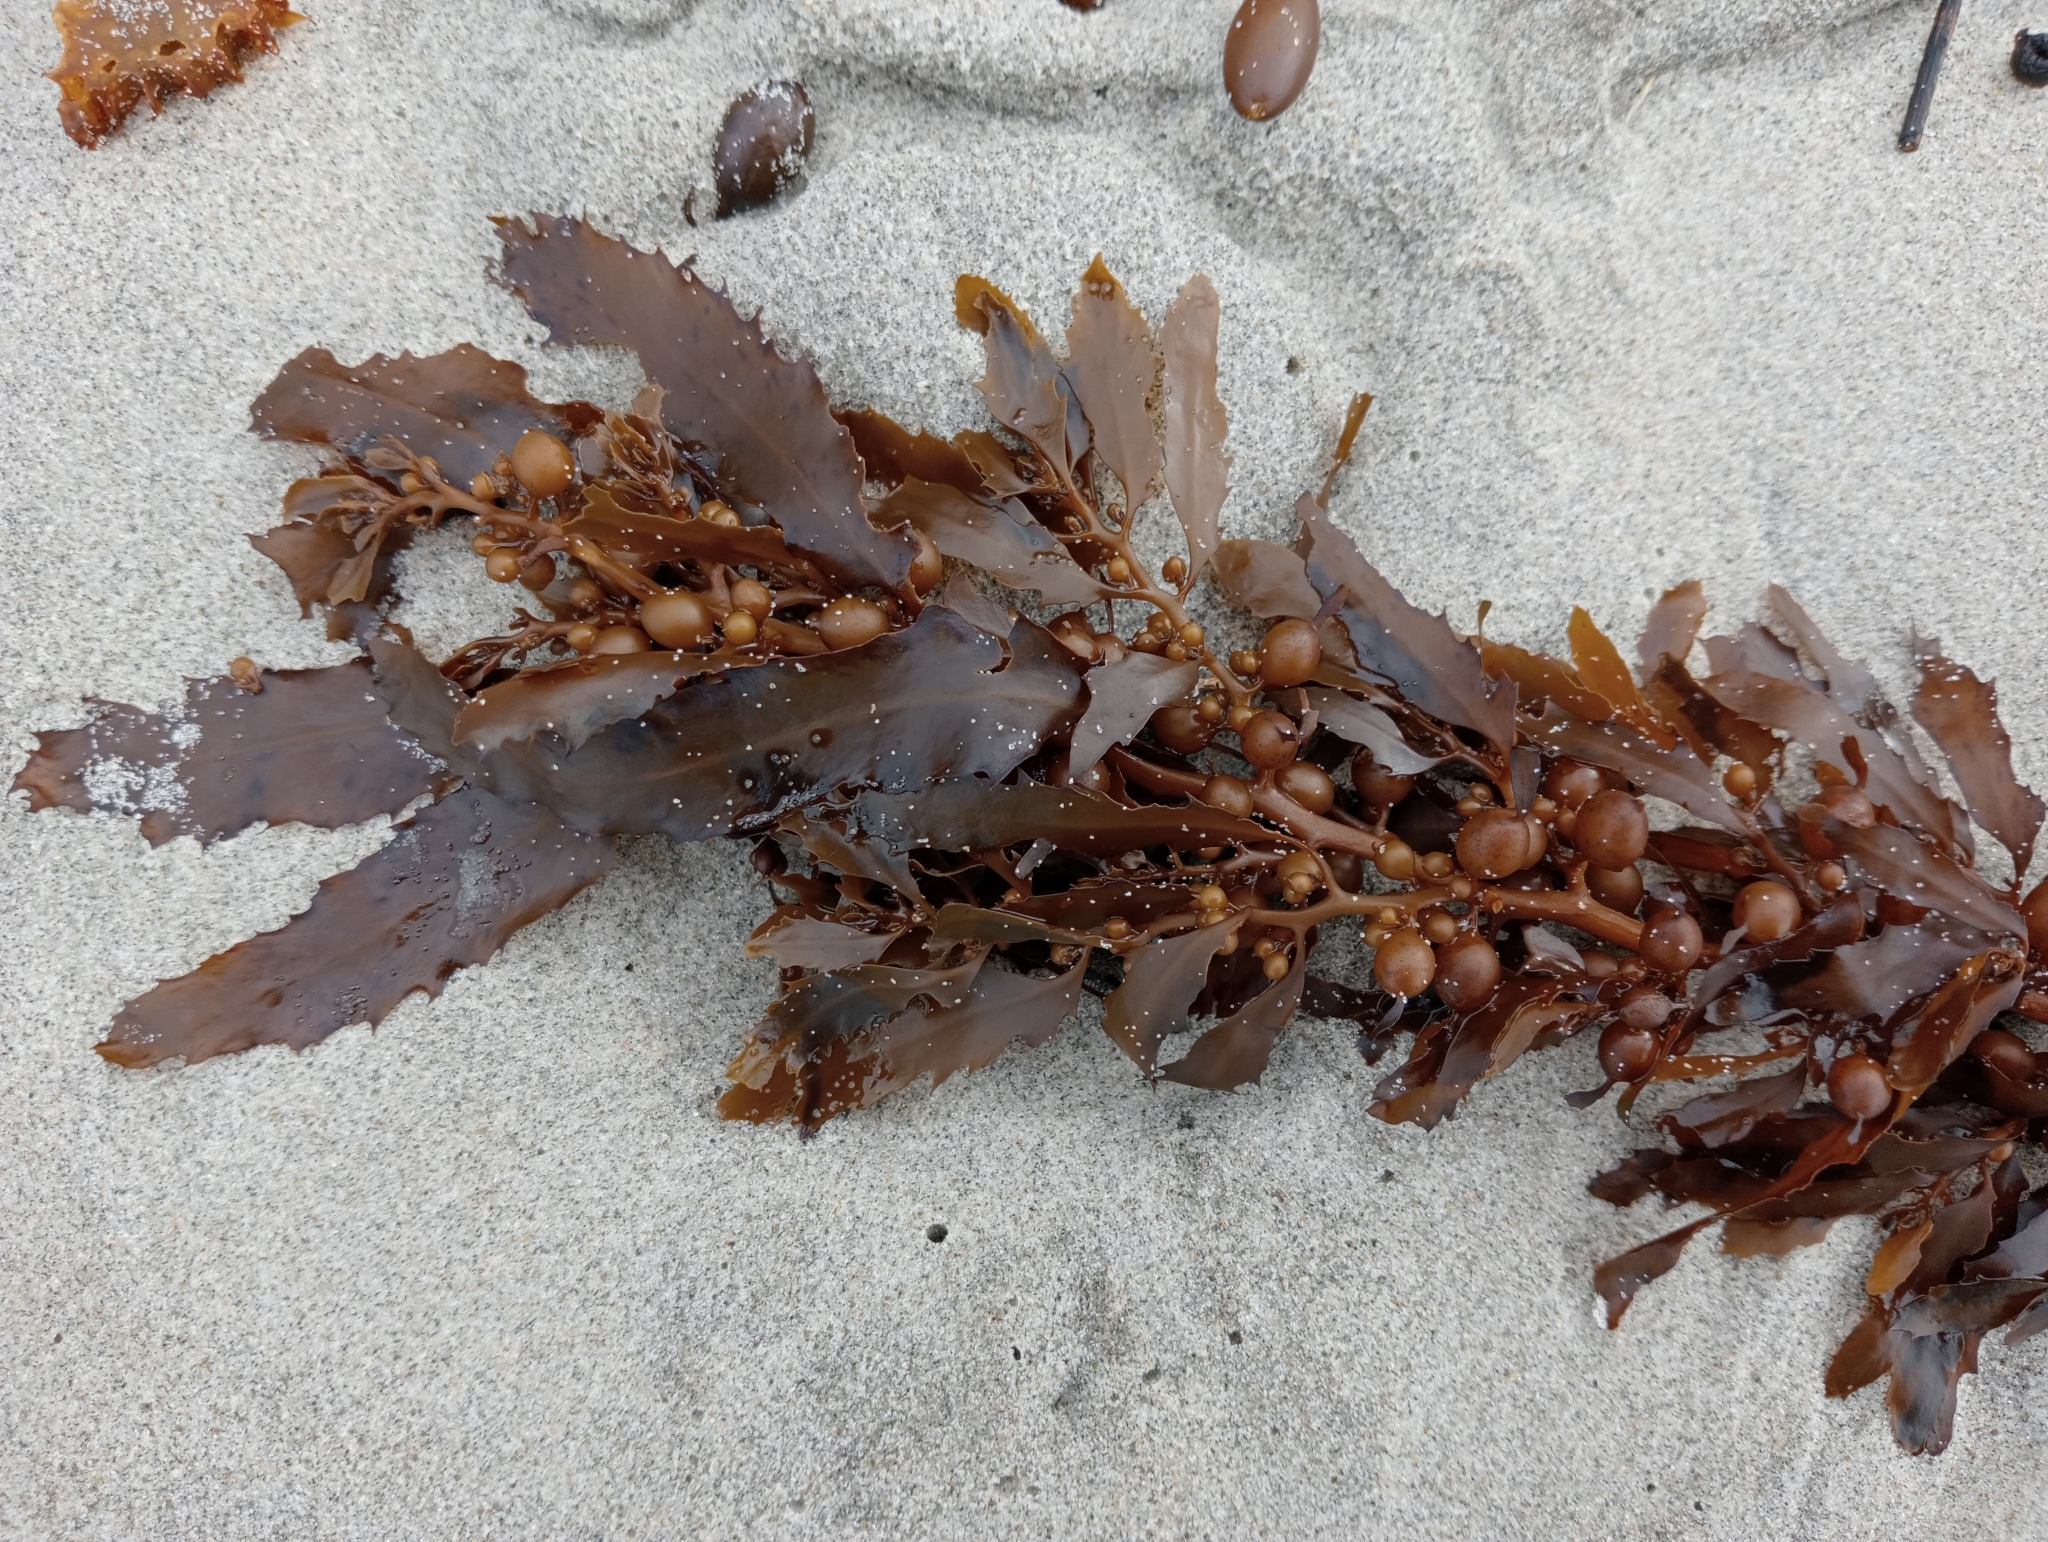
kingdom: Chromista
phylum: Ochrophyta
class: Phaeophyceae
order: Fucales
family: Sargassaceae
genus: Sargassum
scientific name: Sargassum sinclairii
